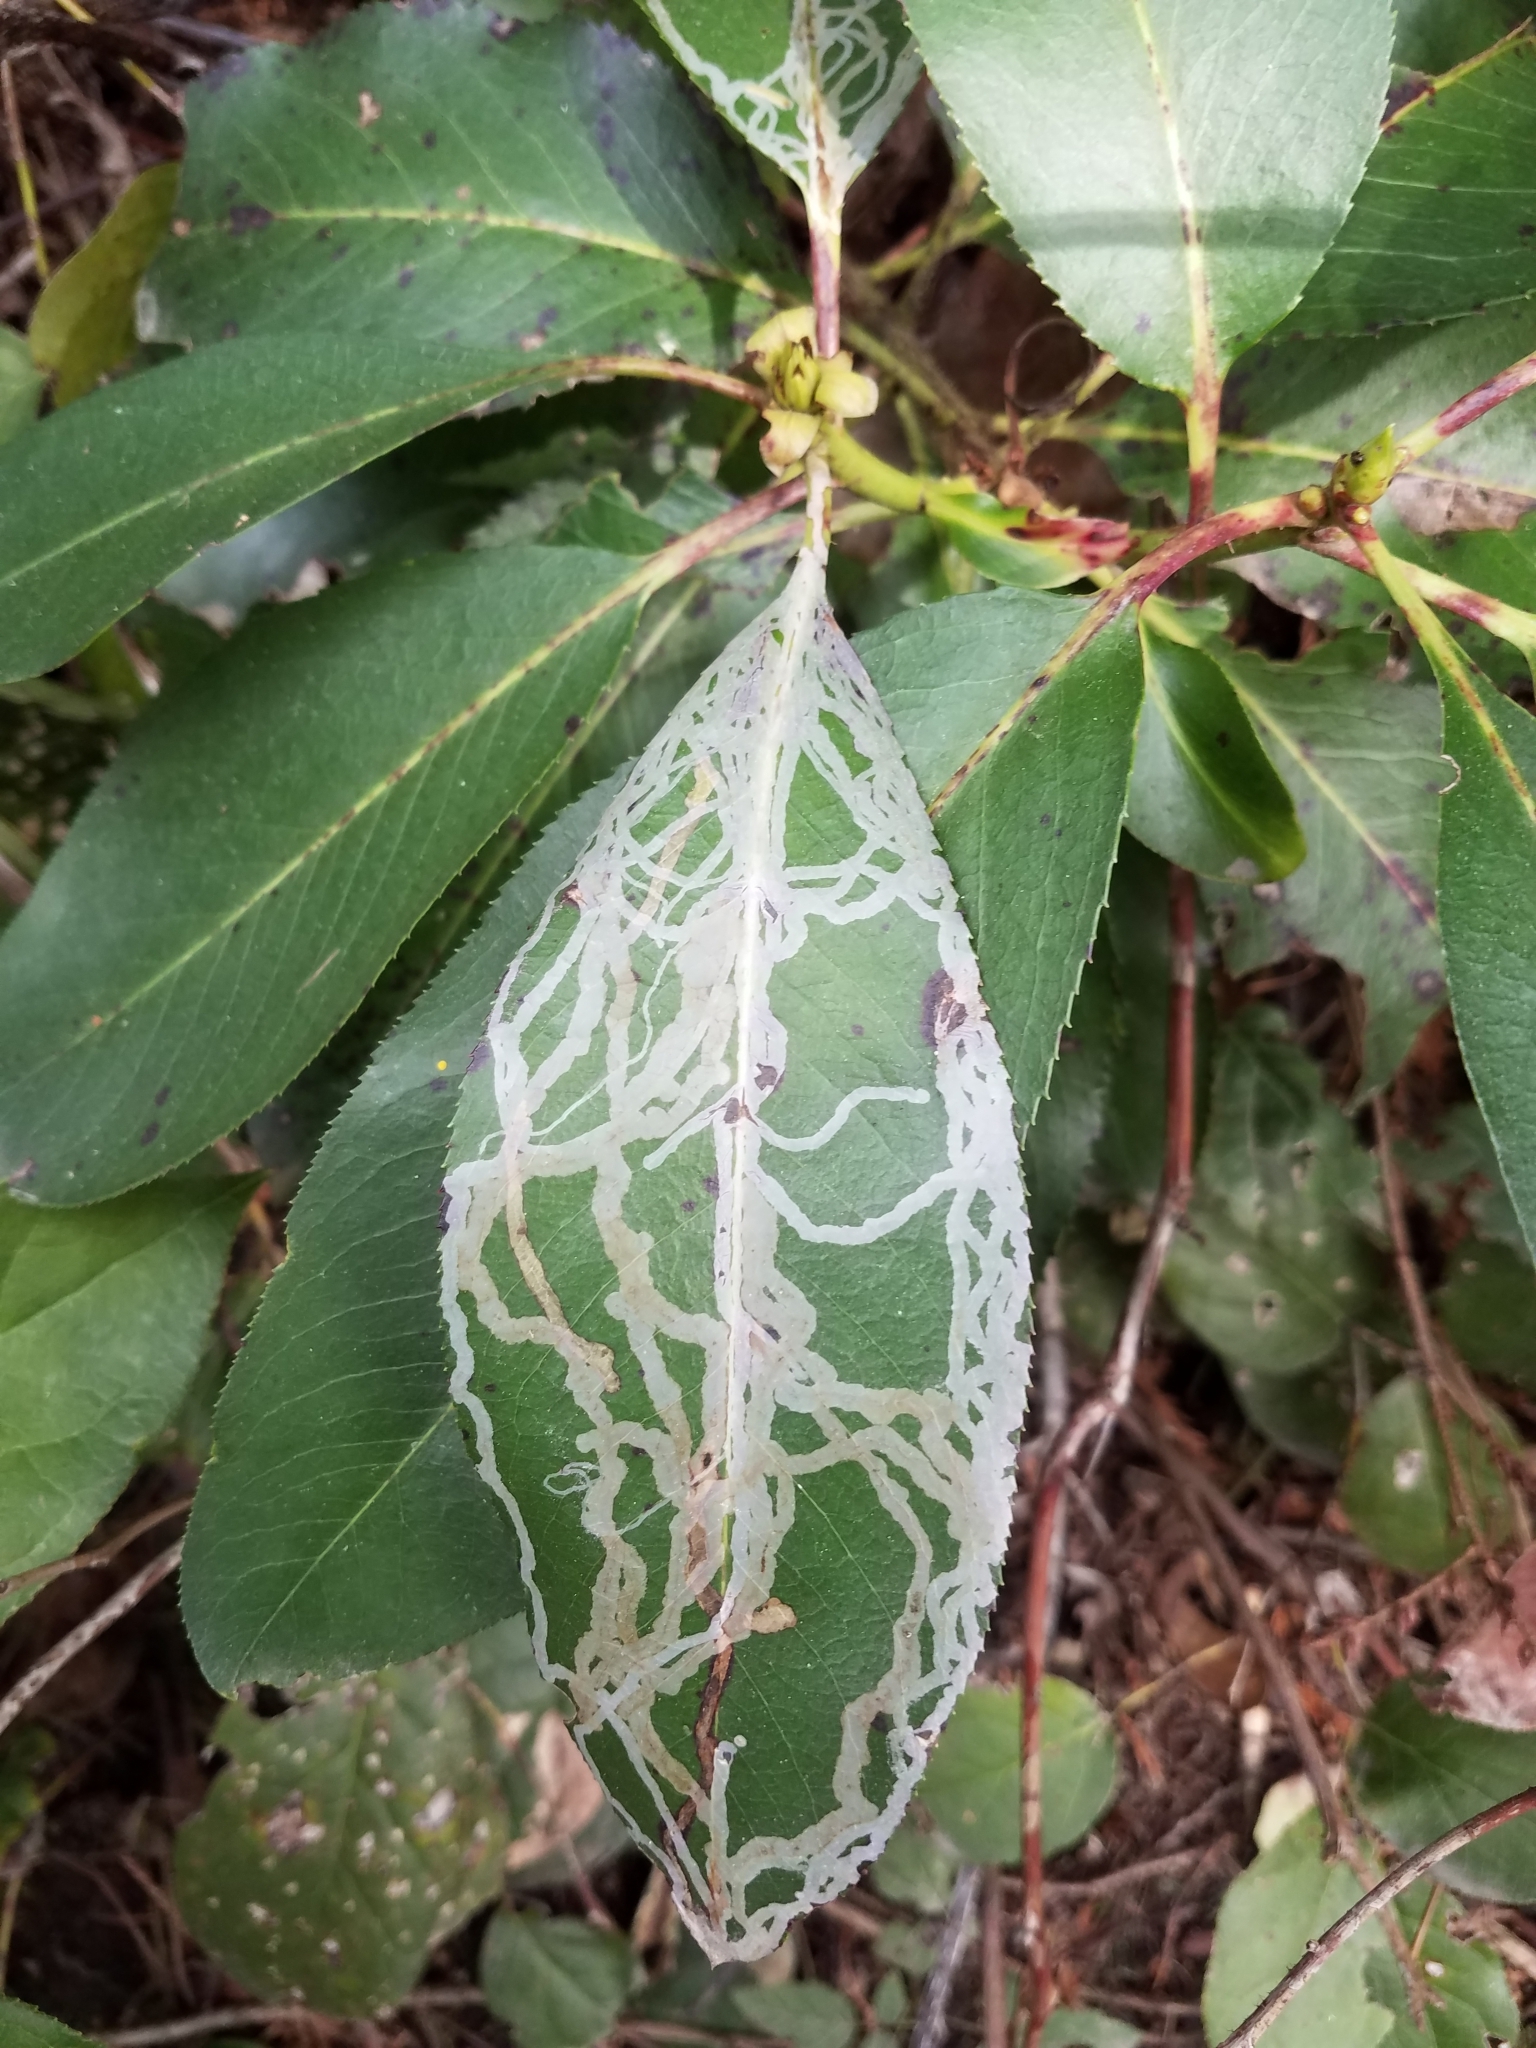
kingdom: Animalia
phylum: Arthropoda
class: Insecta
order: Lepidoptera
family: Gracillariidae
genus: Marmara
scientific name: Marmara arbutiella
